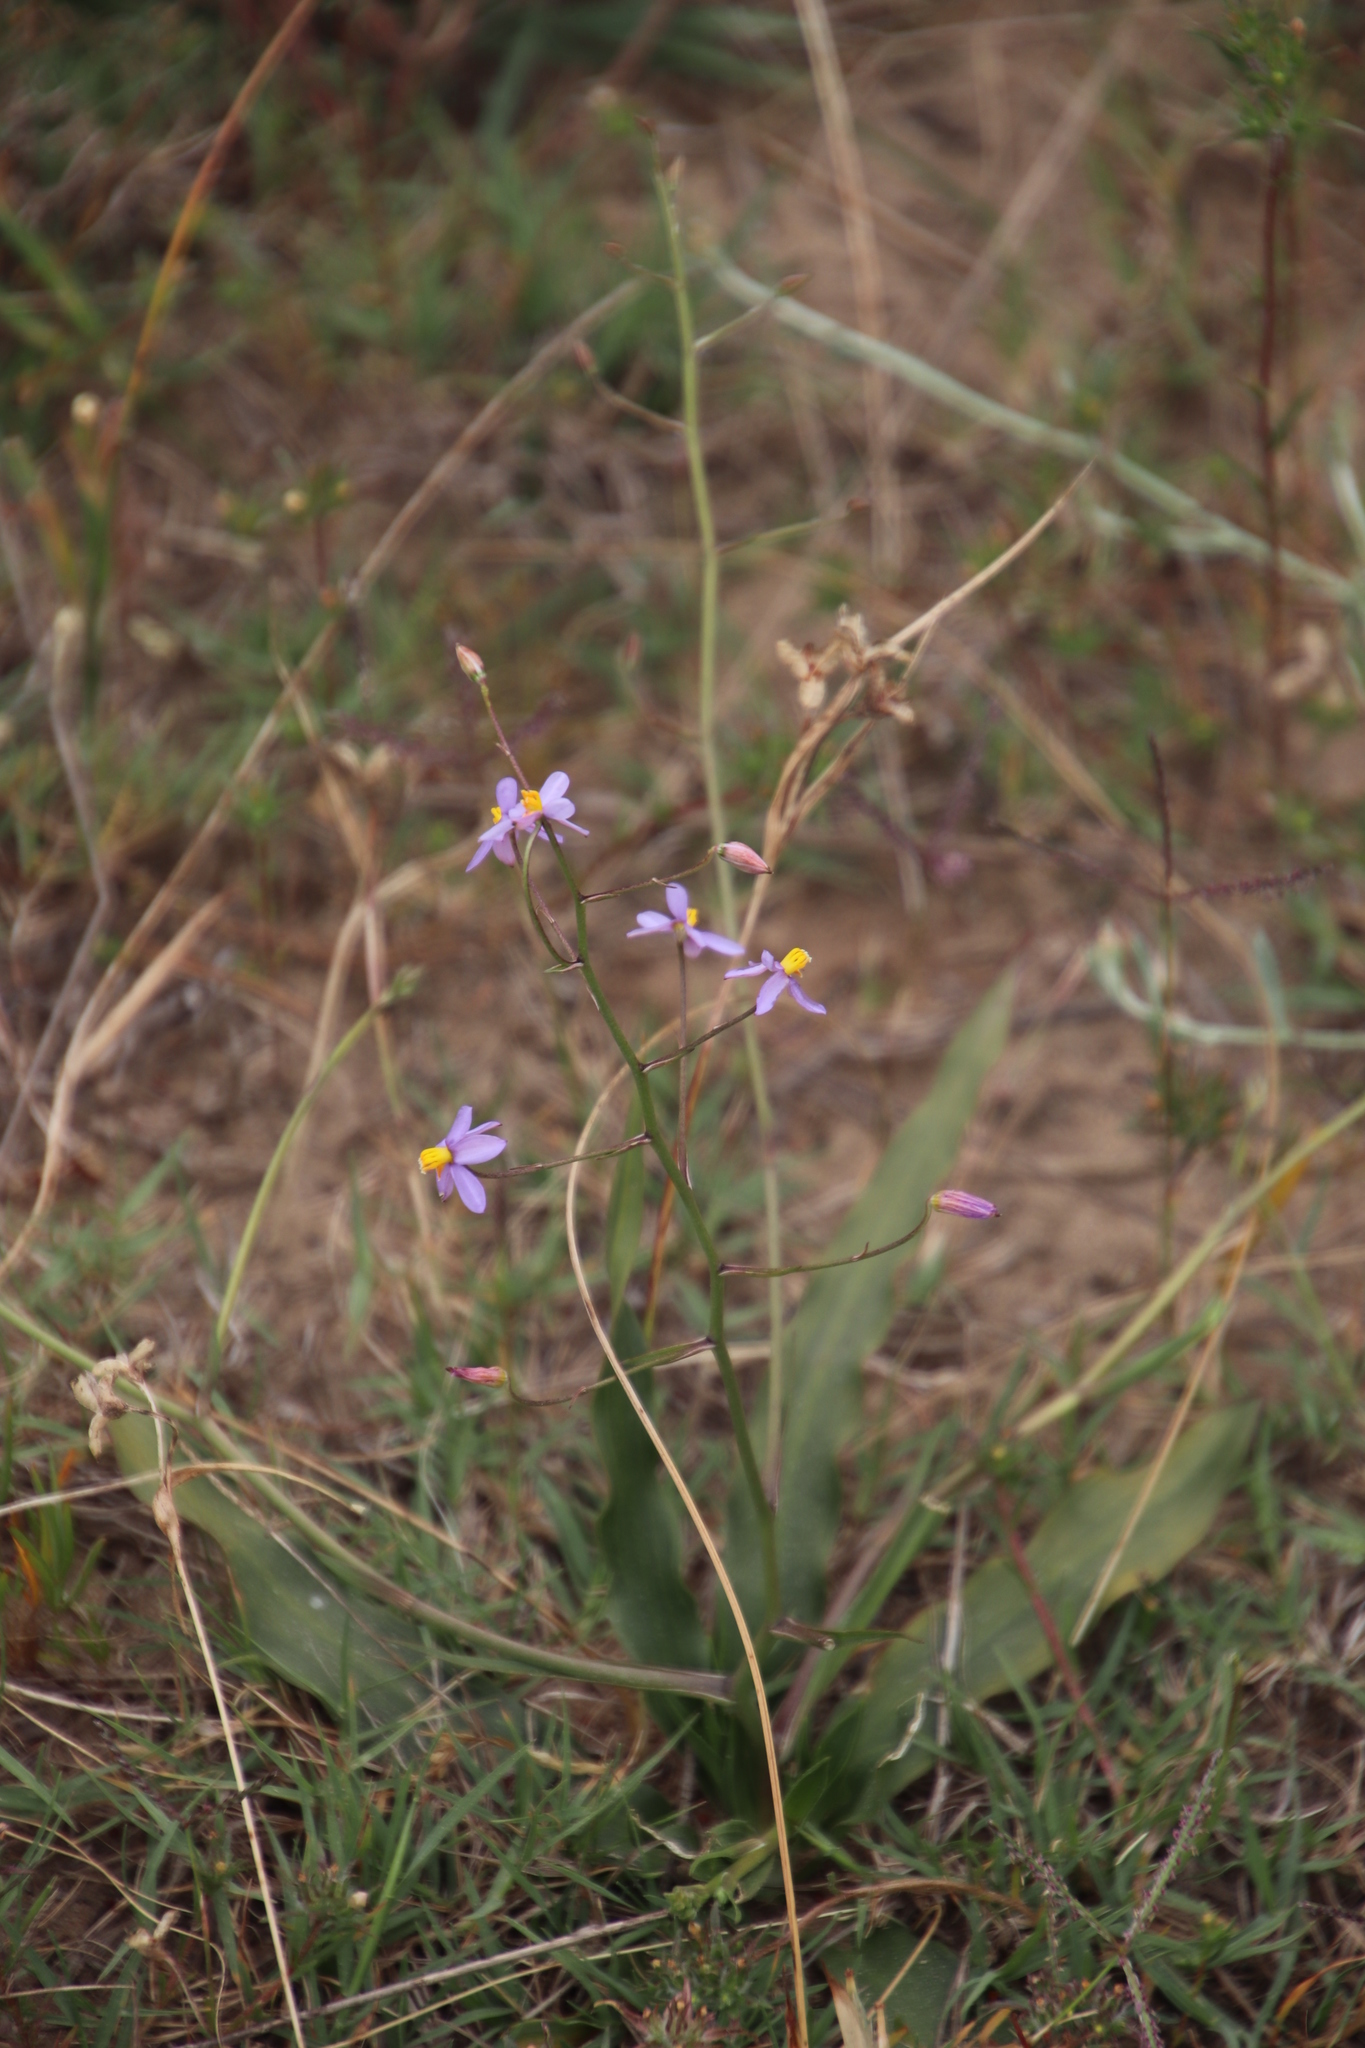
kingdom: Plantae
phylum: Tracheophyta
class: Liliopsida
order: Asparagales
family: Tecophilaeaceae
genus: Cyanella
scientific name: Cyanella hyacinthoides
